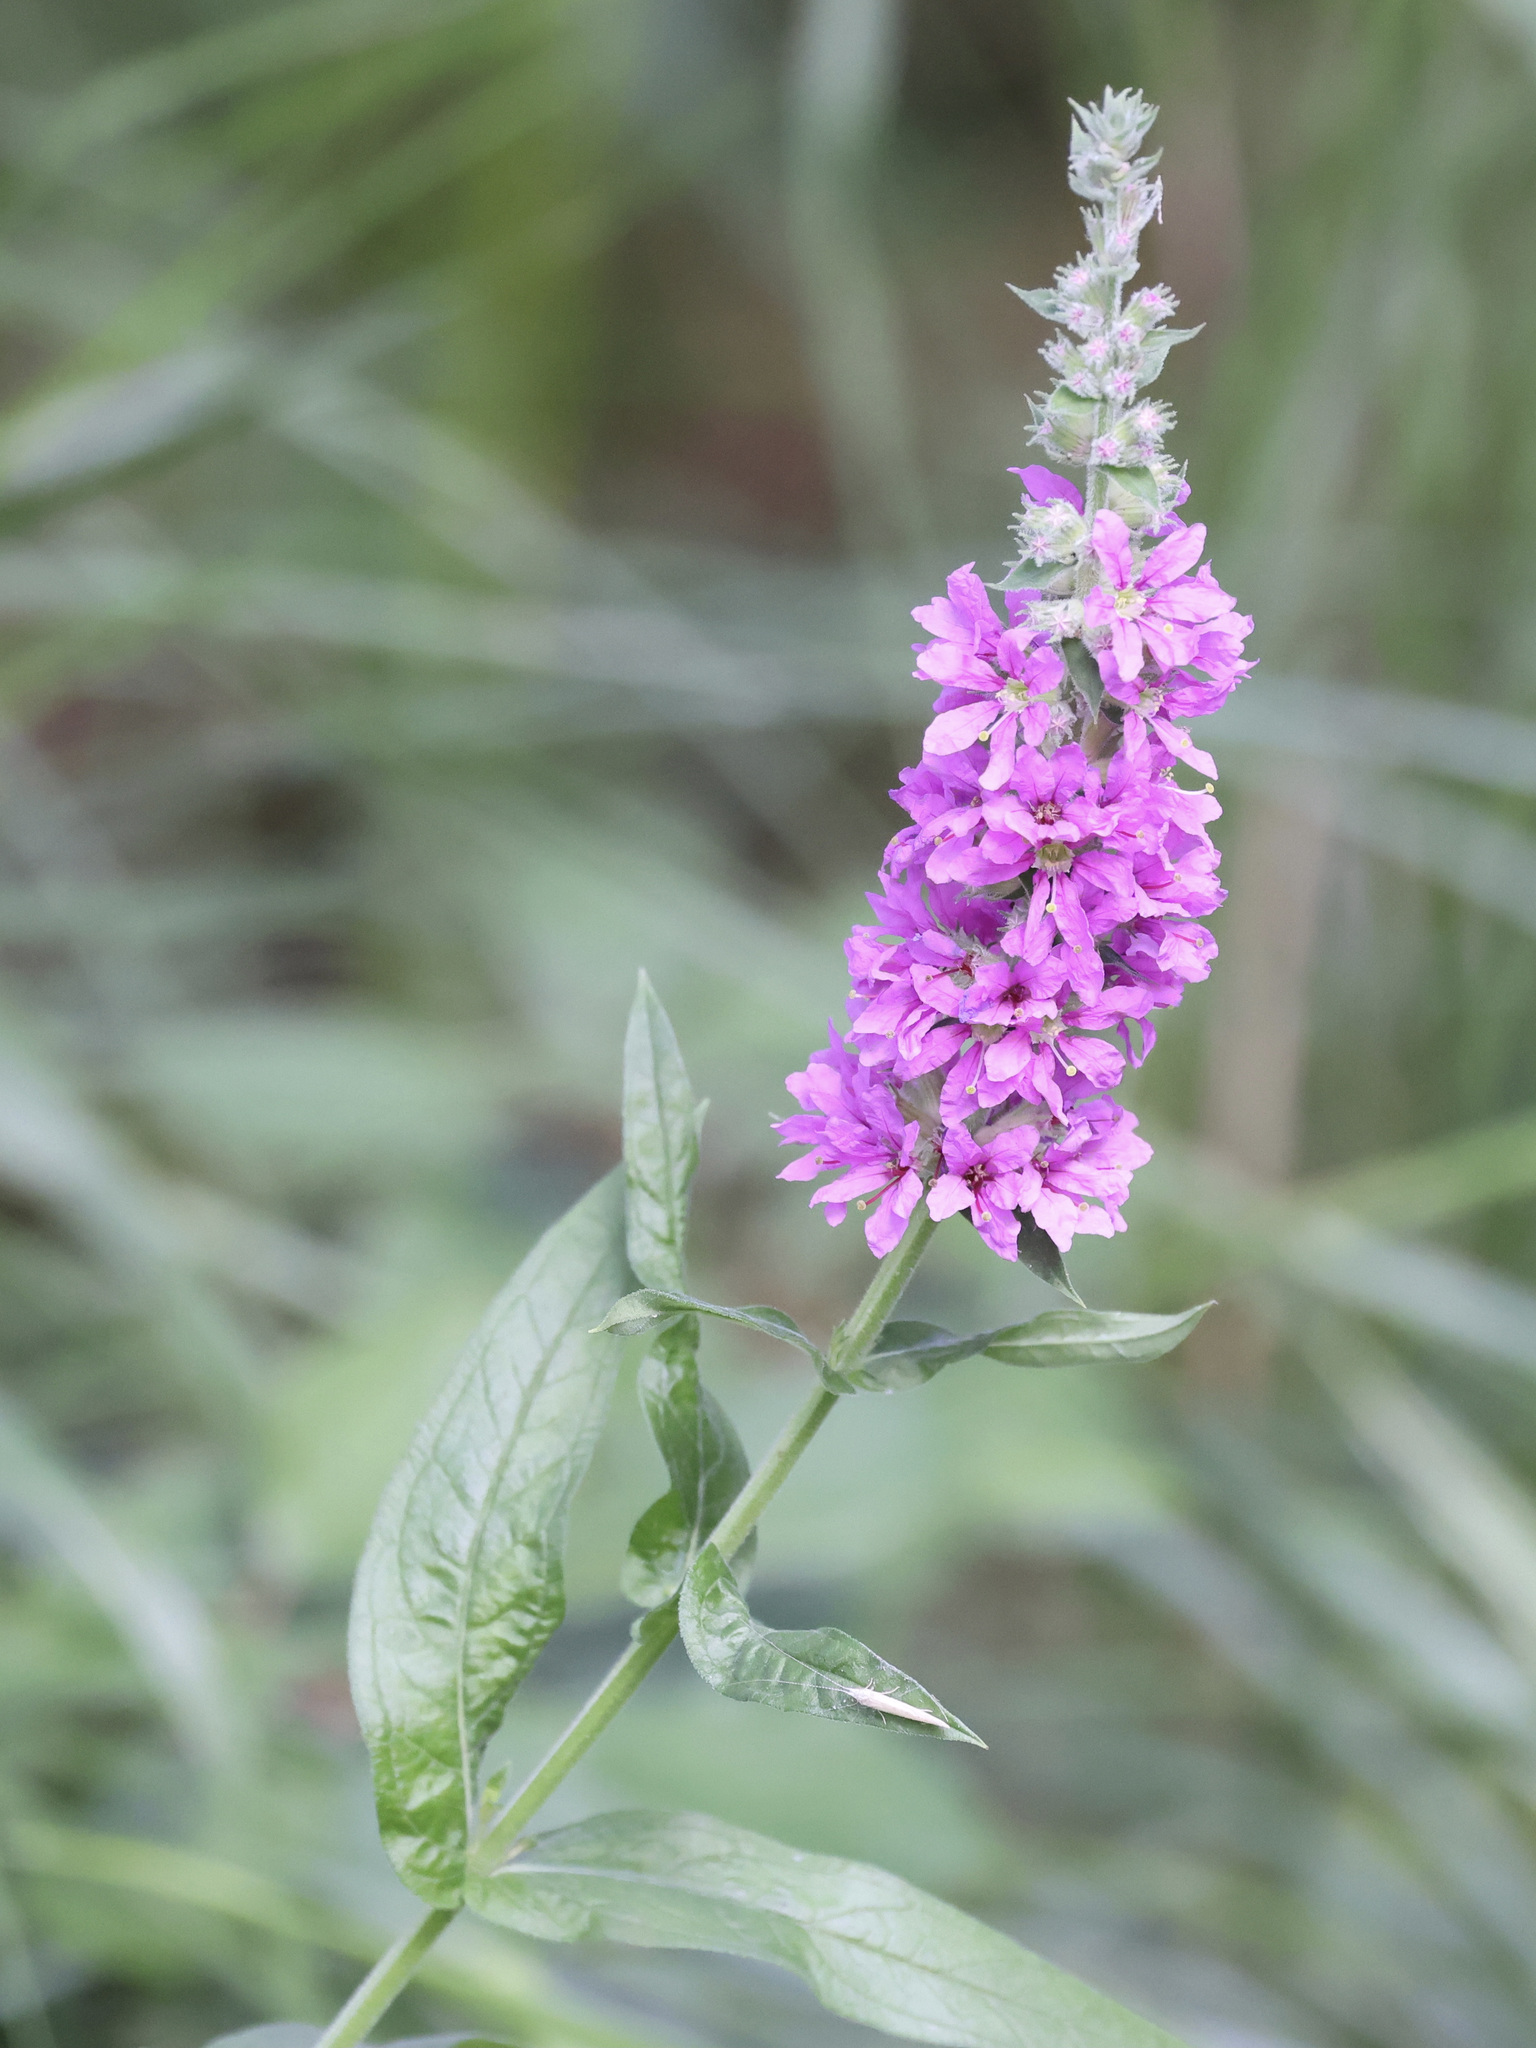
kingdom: Plantae
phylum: Tracheophyta
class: Magnoliopsida
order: Myrtales
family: Lythraceae
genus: Lythrum
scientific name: Lythrum salicaria
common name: Purple loosestrife
